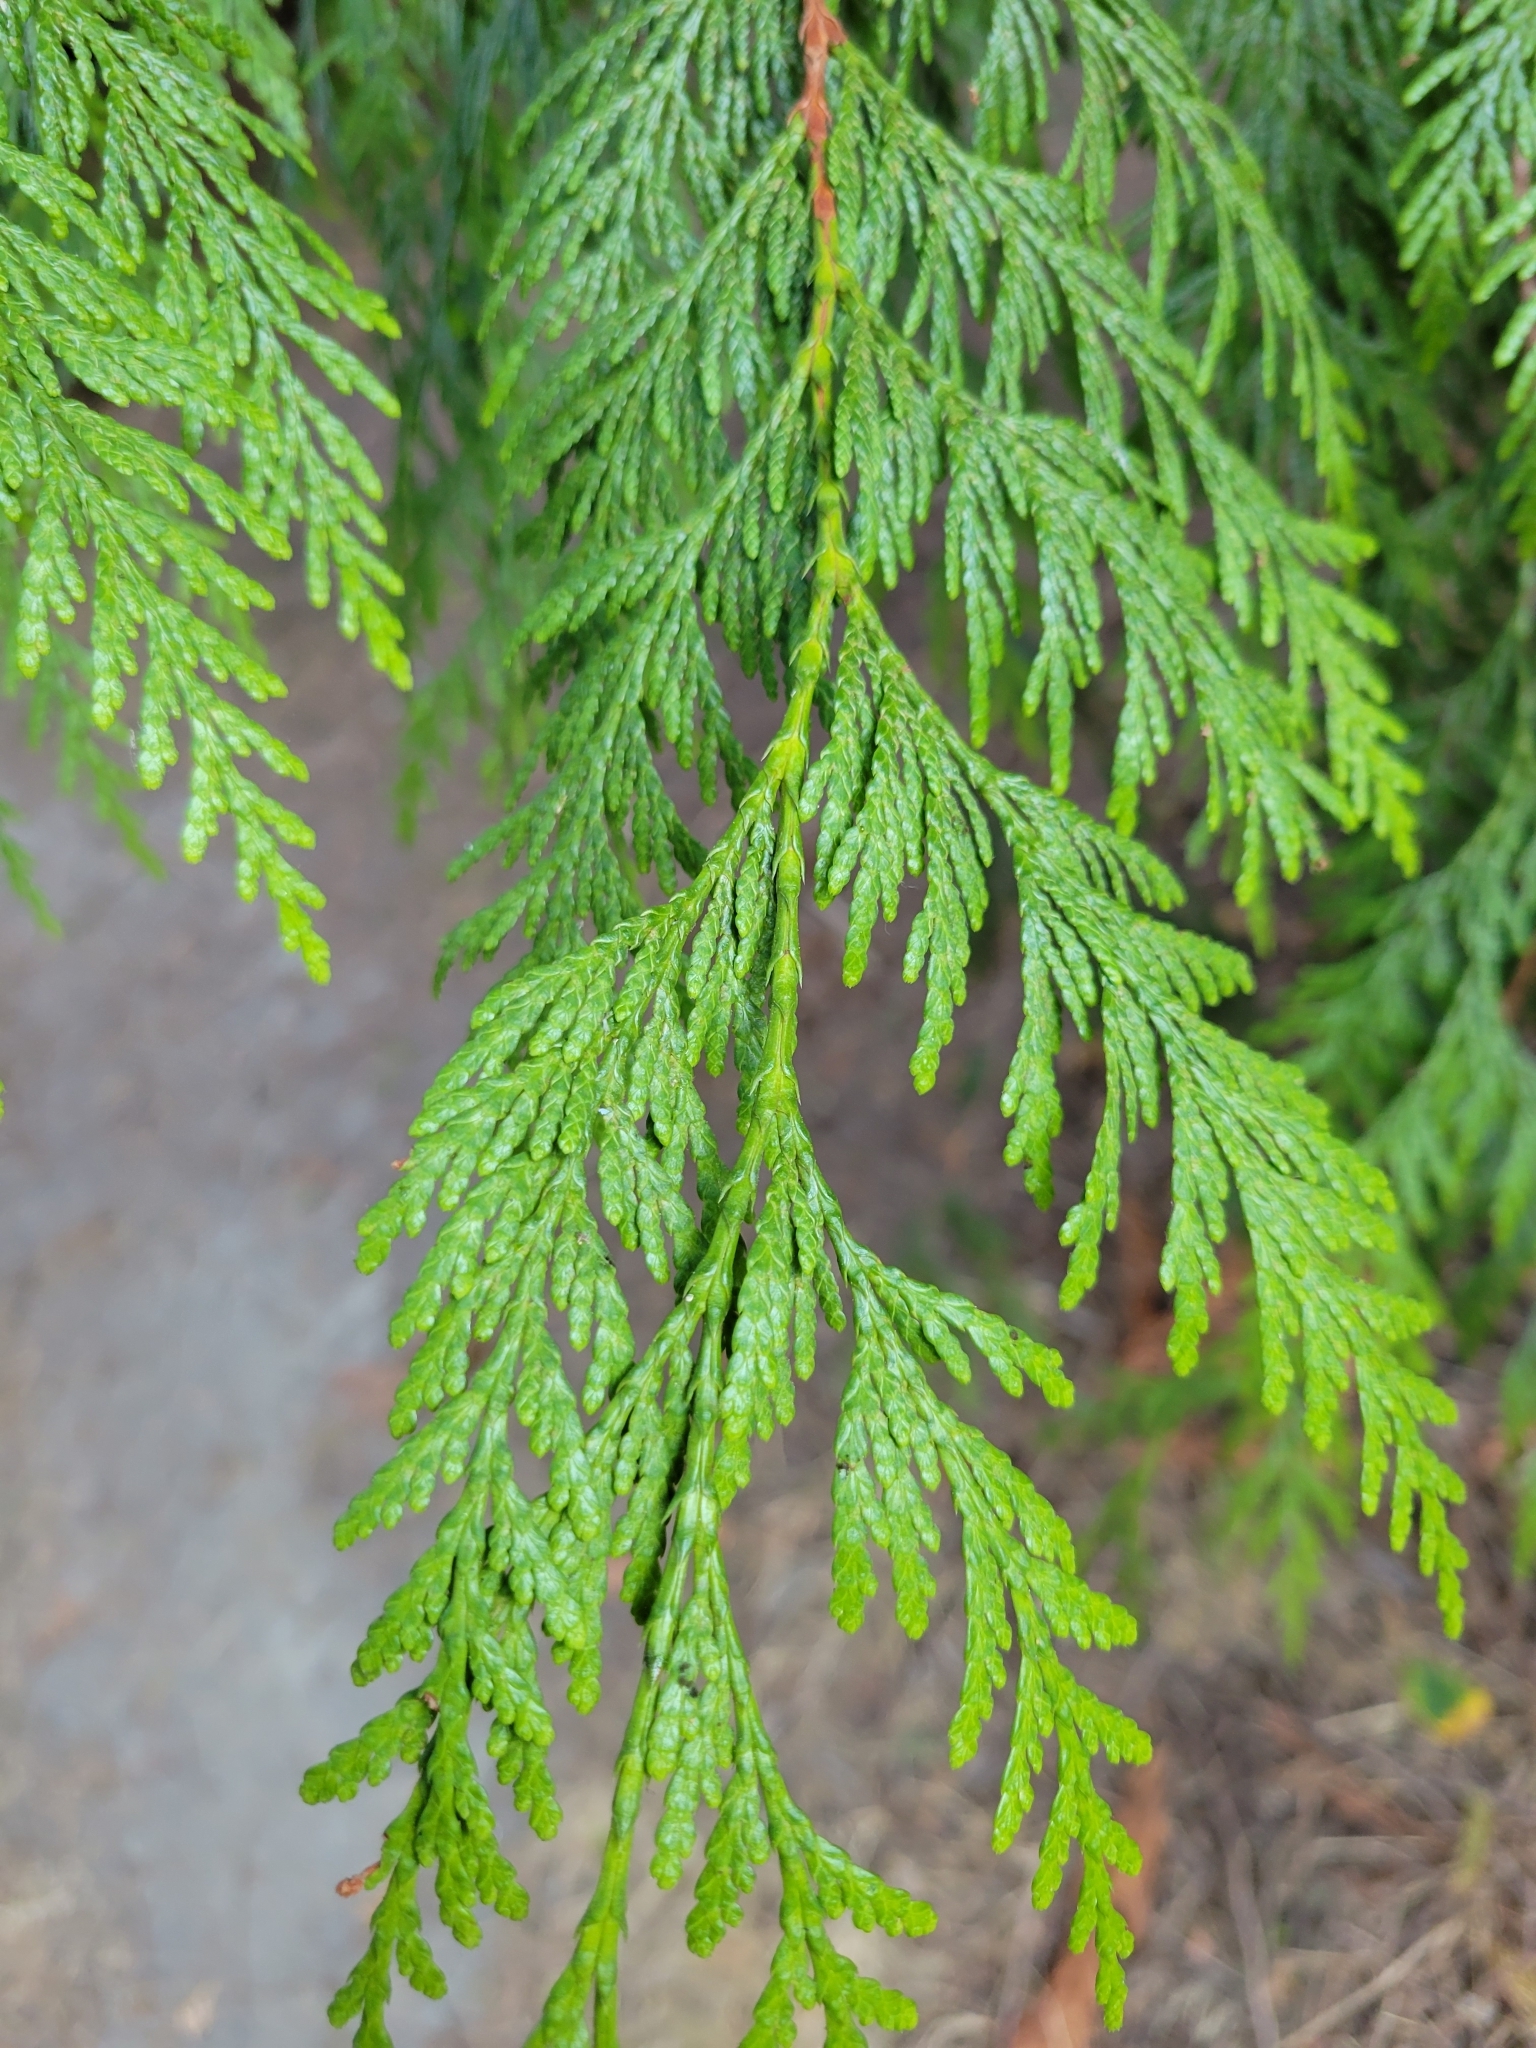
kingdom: Plantae
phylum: Tracheophyta
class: Pinopsida
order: Pinales
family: Cupressaceae
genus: Thuja
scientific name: Thuja plicata
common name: Western red-cedar
